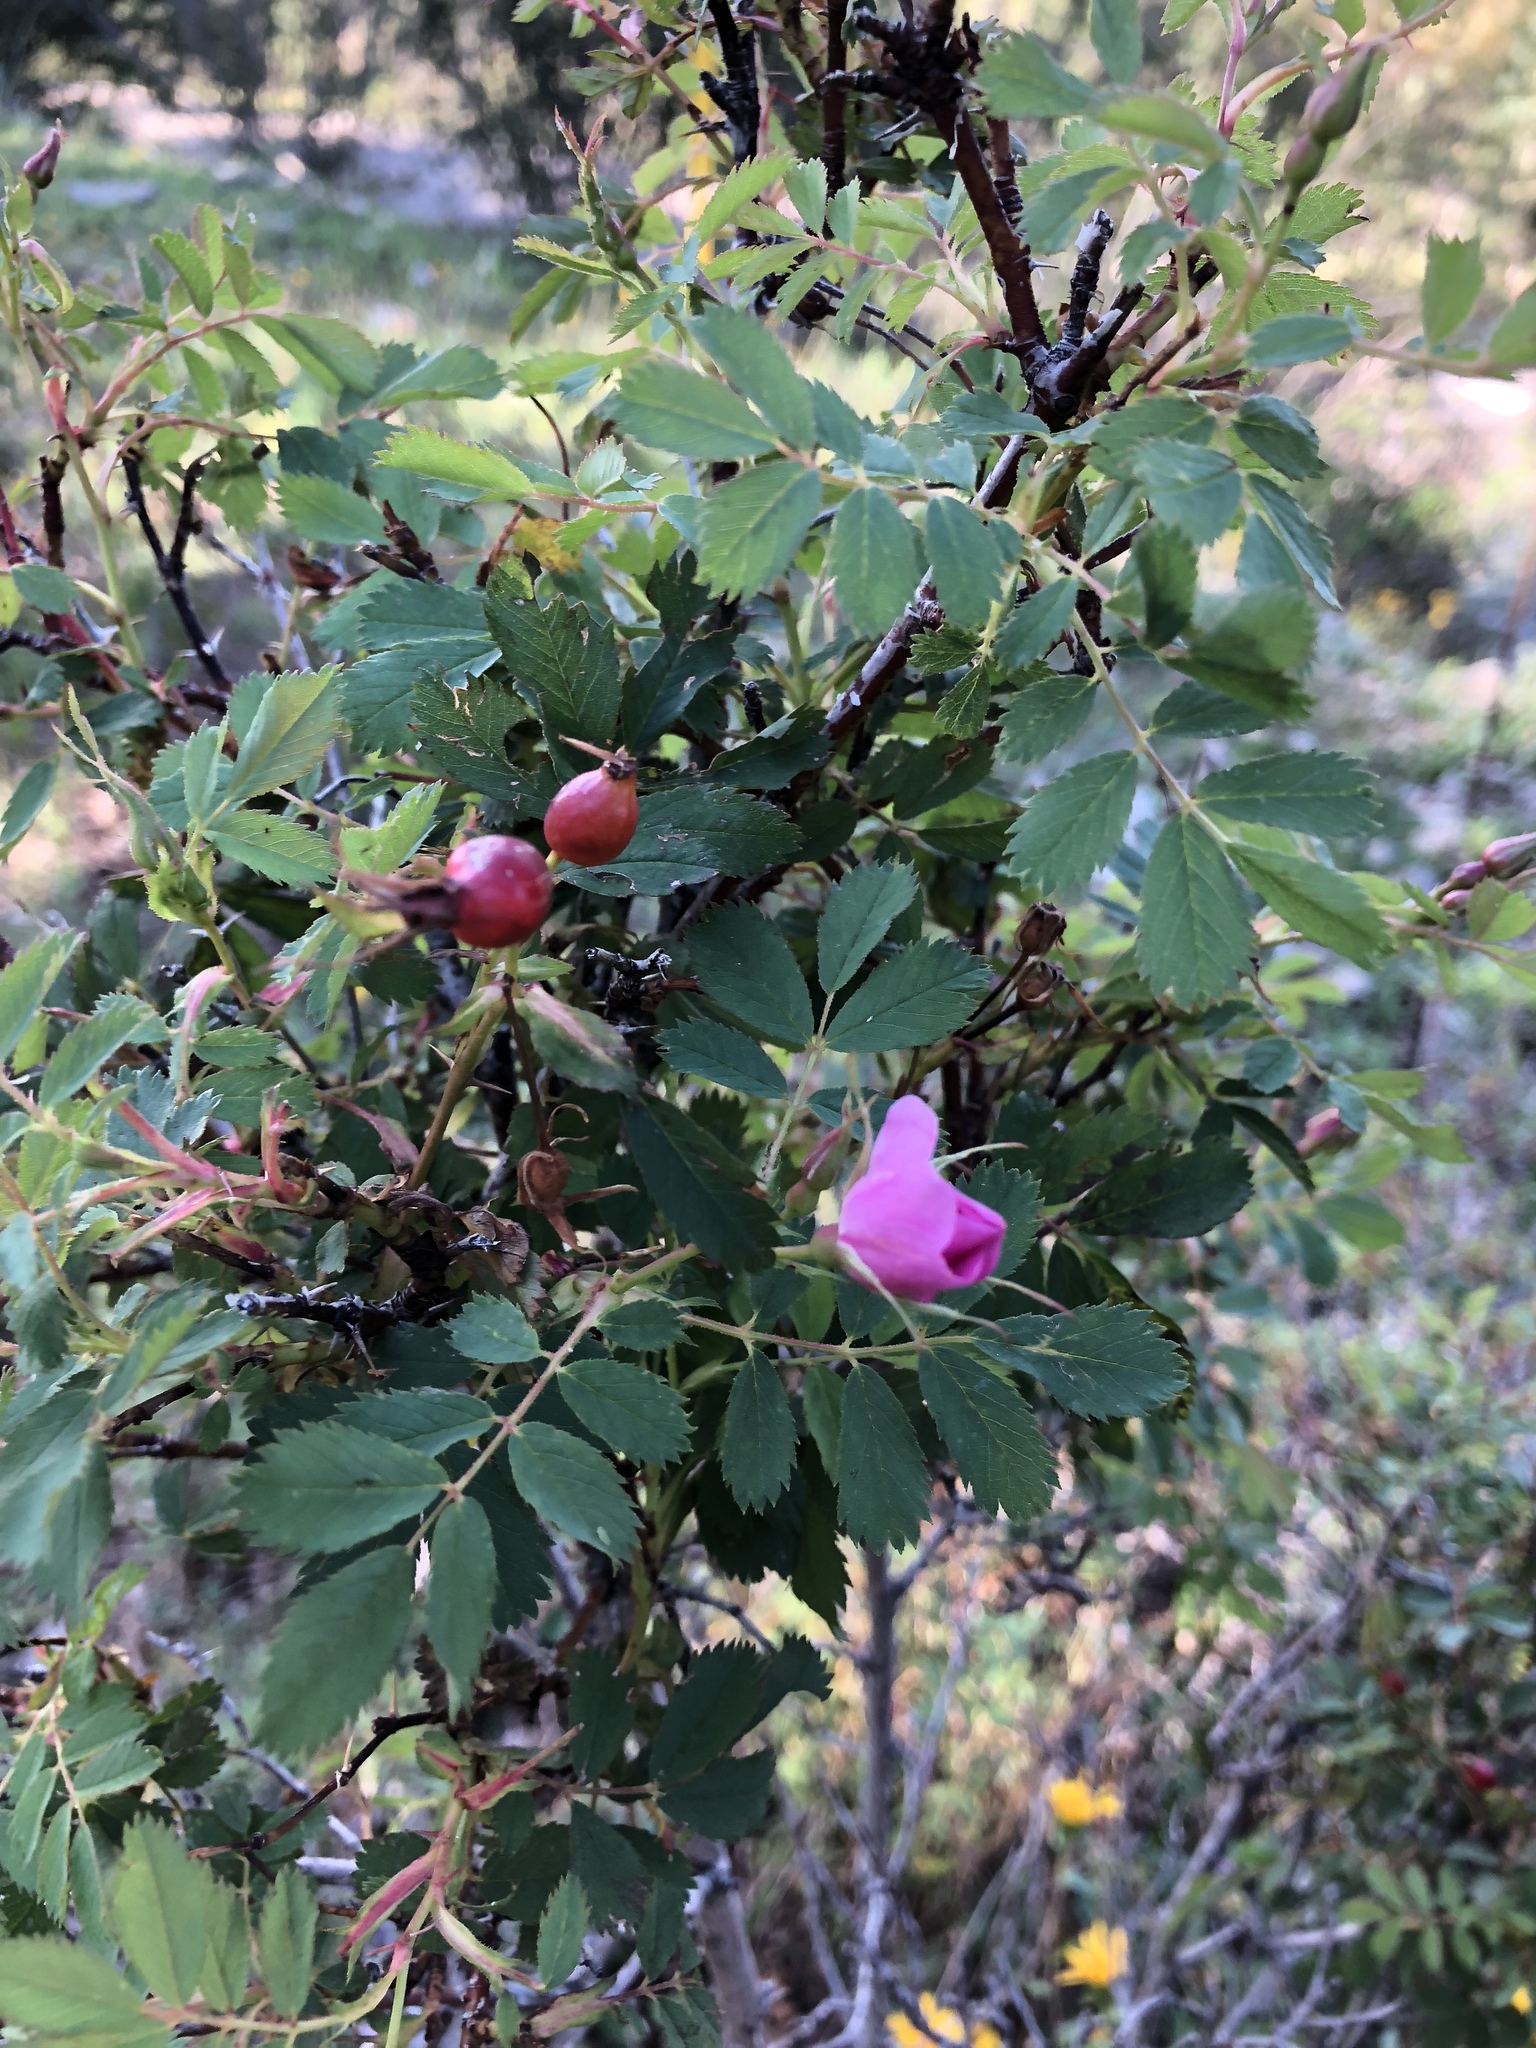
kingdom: Plantae
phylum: Tracheophyta
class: Magnoliopsida
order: Rosales
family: Rosaceae
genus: Rosa
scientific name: Rosa woodsii
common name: Woods's rose
